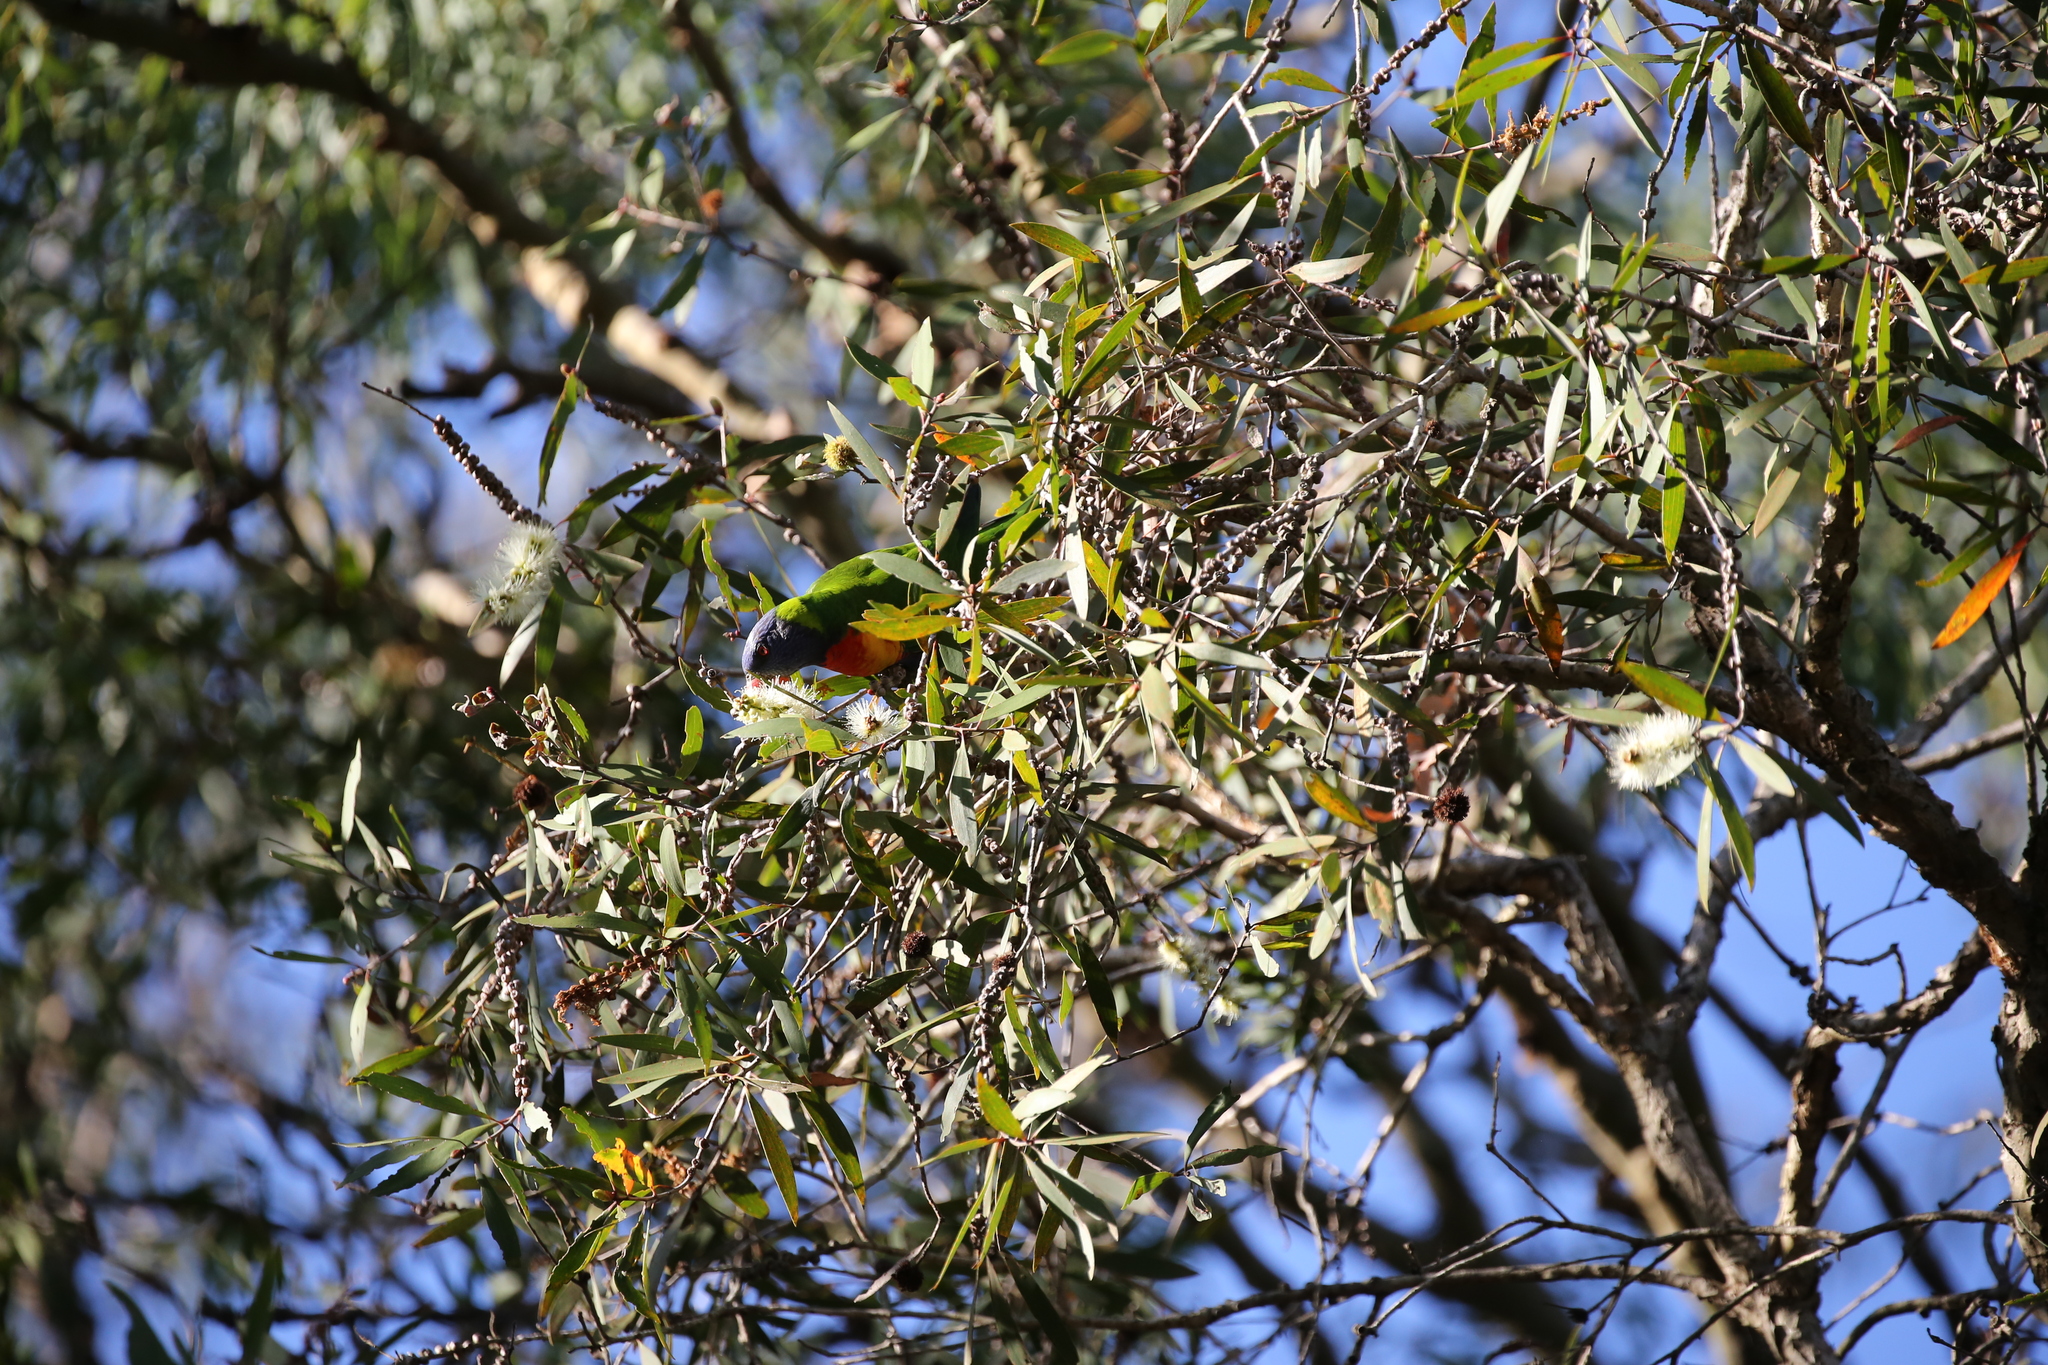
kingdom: Animalia
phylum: Chordata
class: Aves
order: Psittaciformes
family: Psittacidae
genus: Trichoglossus
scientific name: Trichoglossus haematodus
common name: Coconut lorikeet
